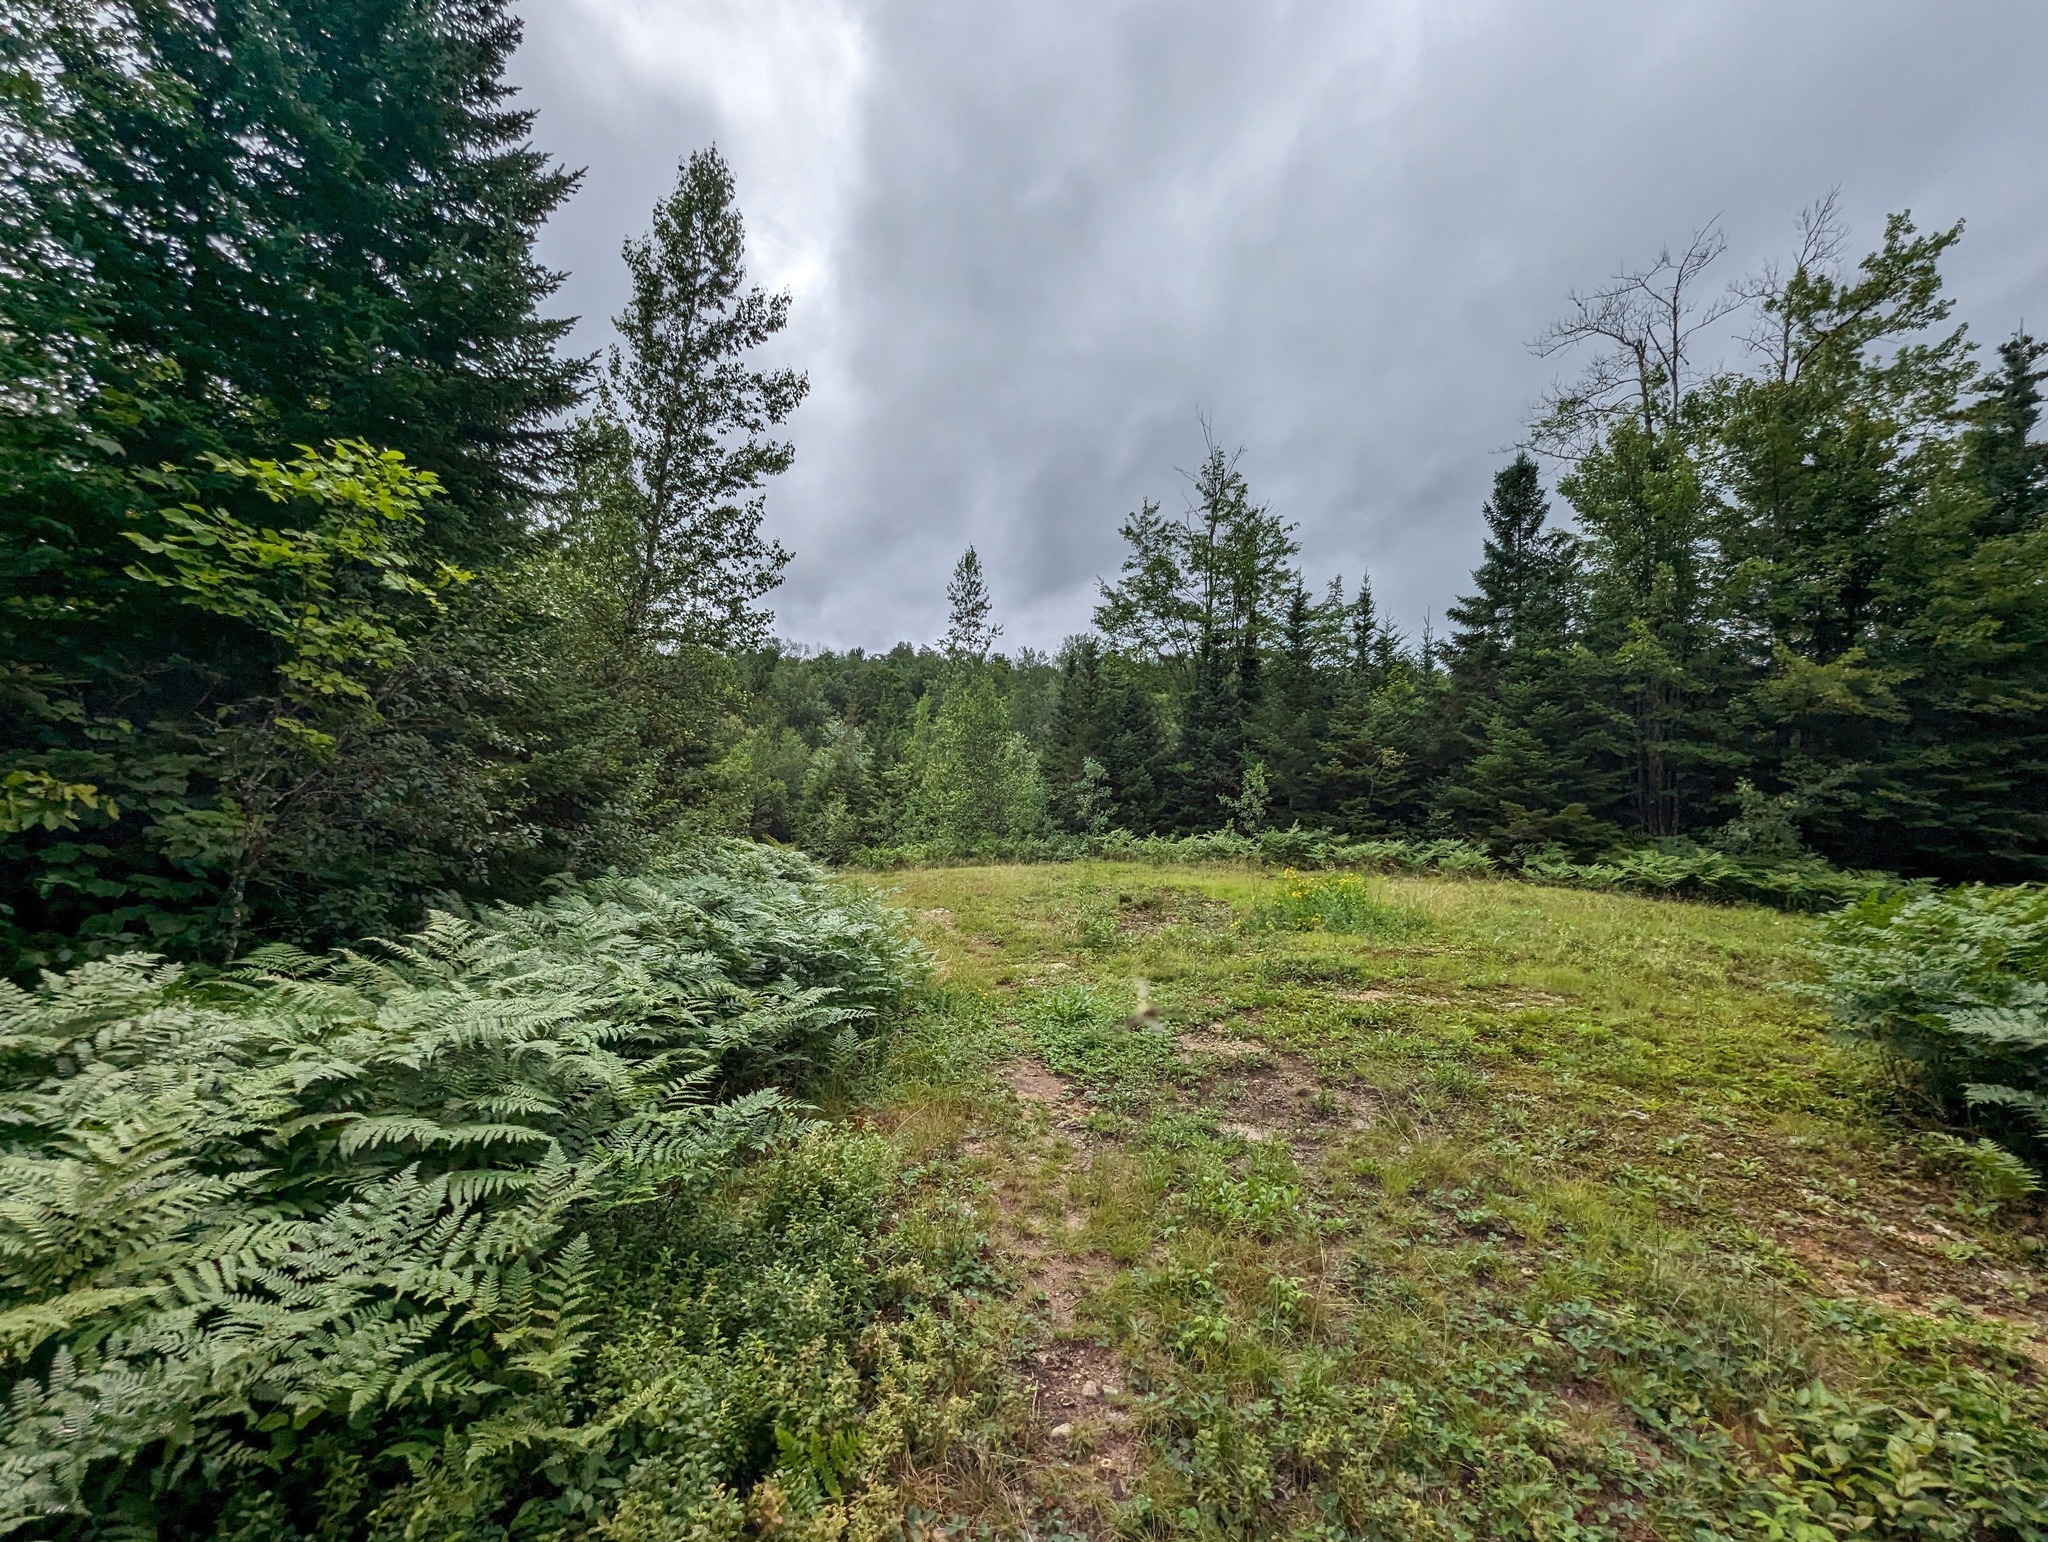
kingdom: Plantae
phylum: Tracheophyta
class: Polypodiopsida
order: Polypodiales
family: Dennstaedtiaceae
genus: Pteridium
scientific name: Pteridium aquilinum
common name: Bracken
